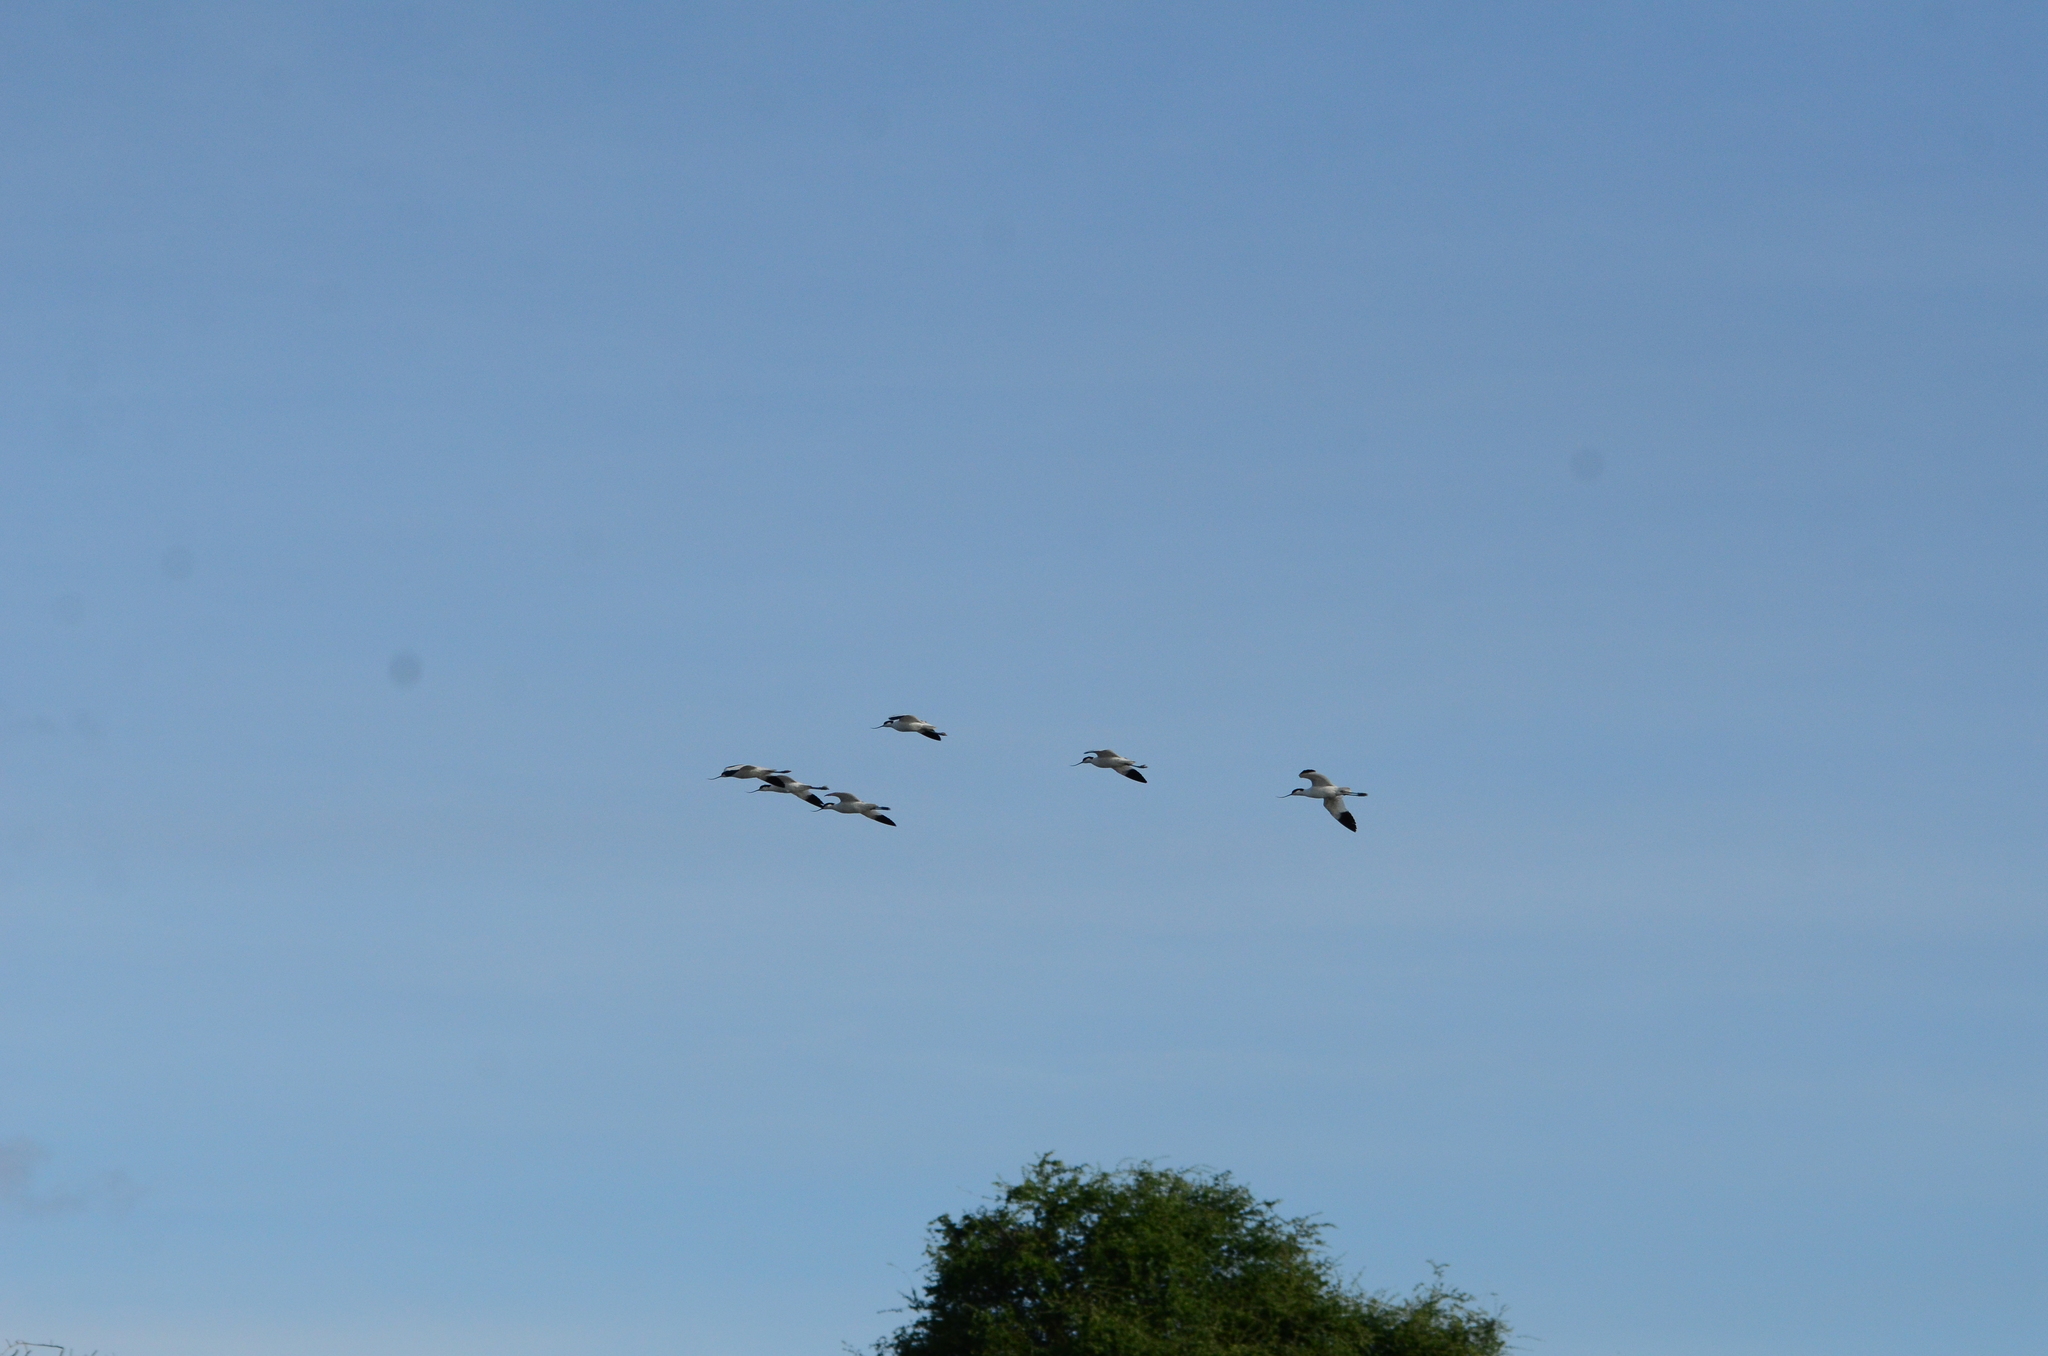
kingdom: Animalia
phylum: Chordata
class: Aves
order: Charadriiformes
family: Recurvirostridae
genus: Recurvirostra
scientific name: Recurvirostra avosetta
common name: Pied avocet
